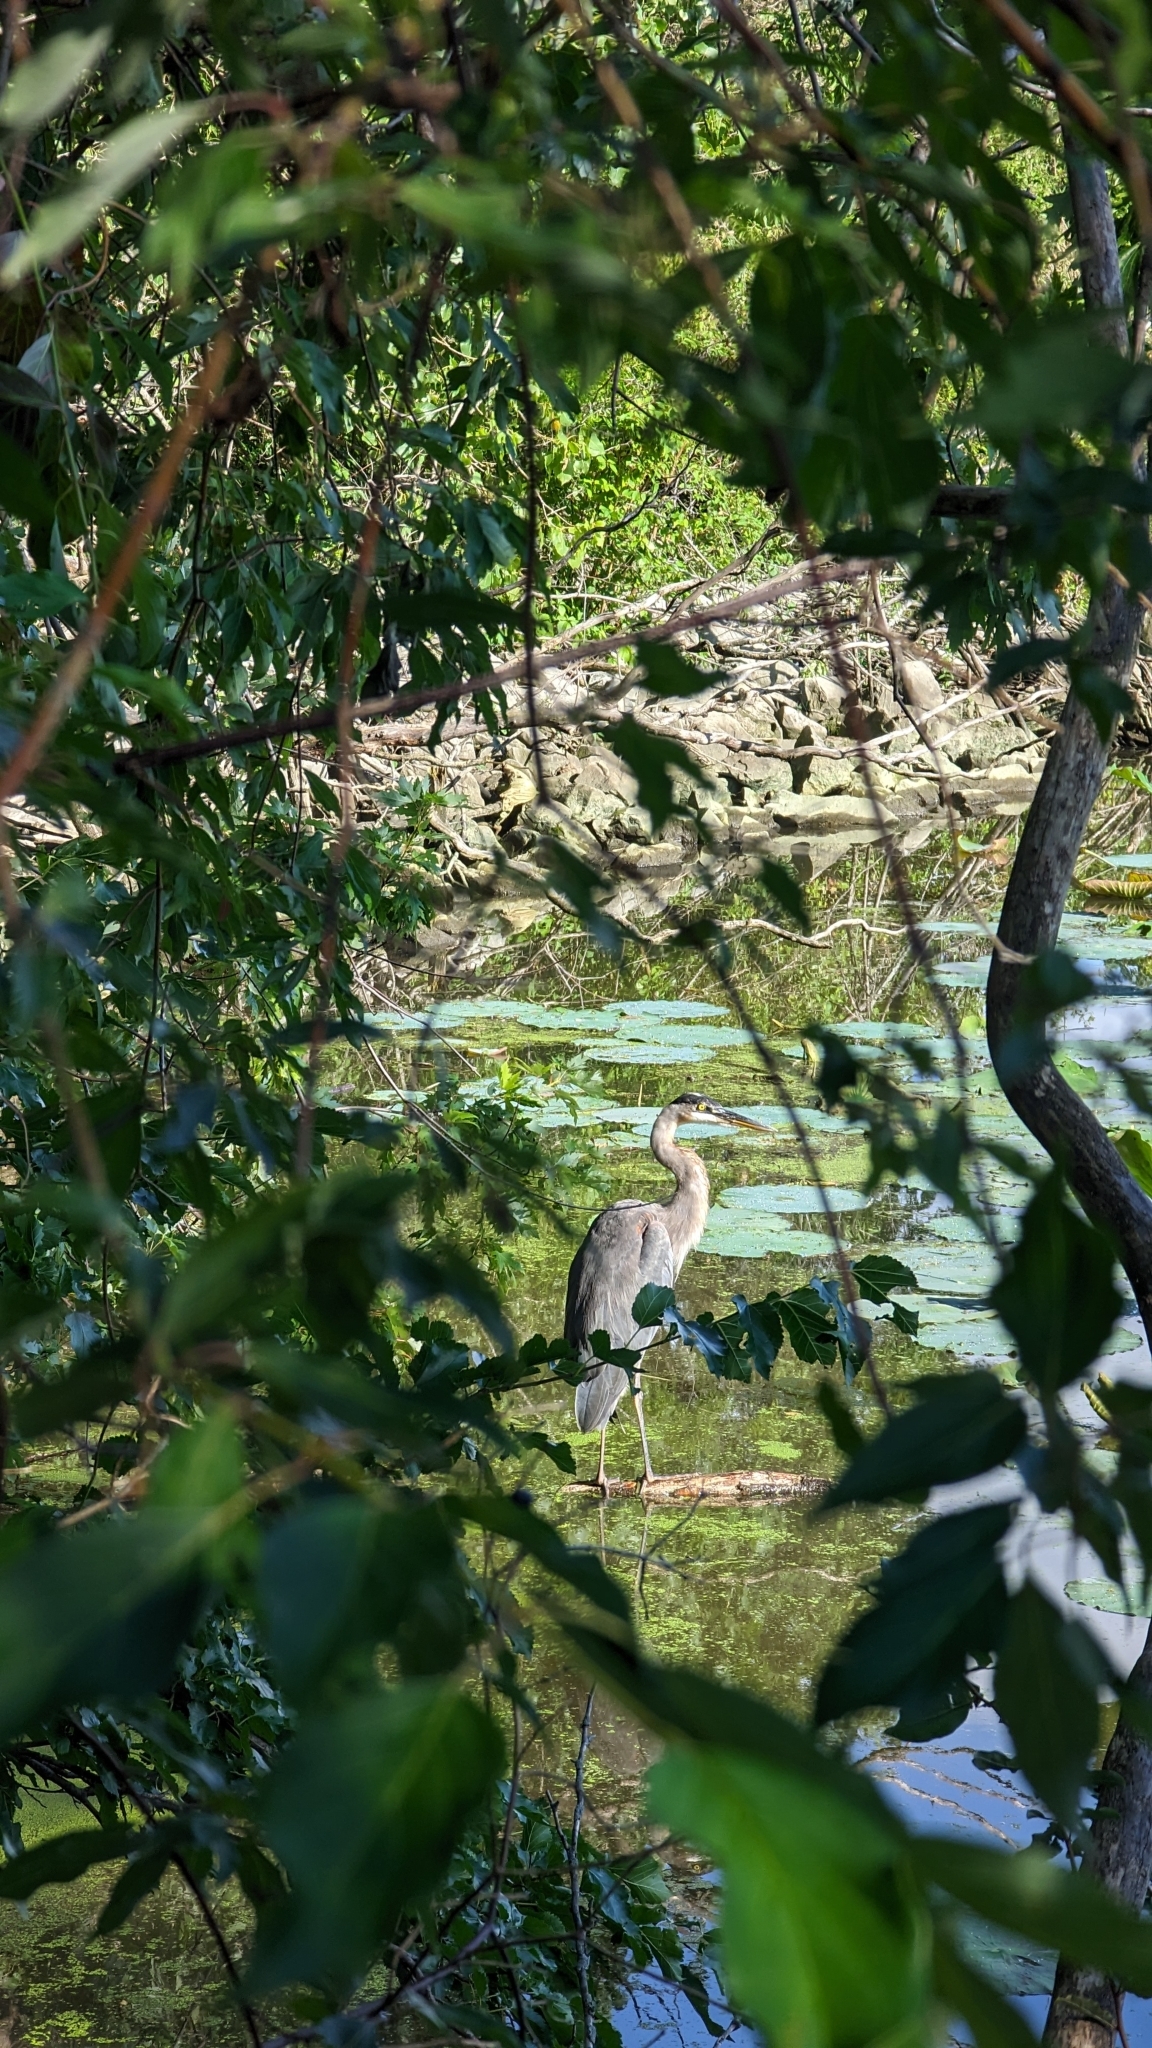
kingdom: Animalia
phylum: Chordata
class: Aves
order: Pelecaniformes
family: Ardeidae
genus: Ardea
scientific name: Ardea herodias
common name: Great blue heron
